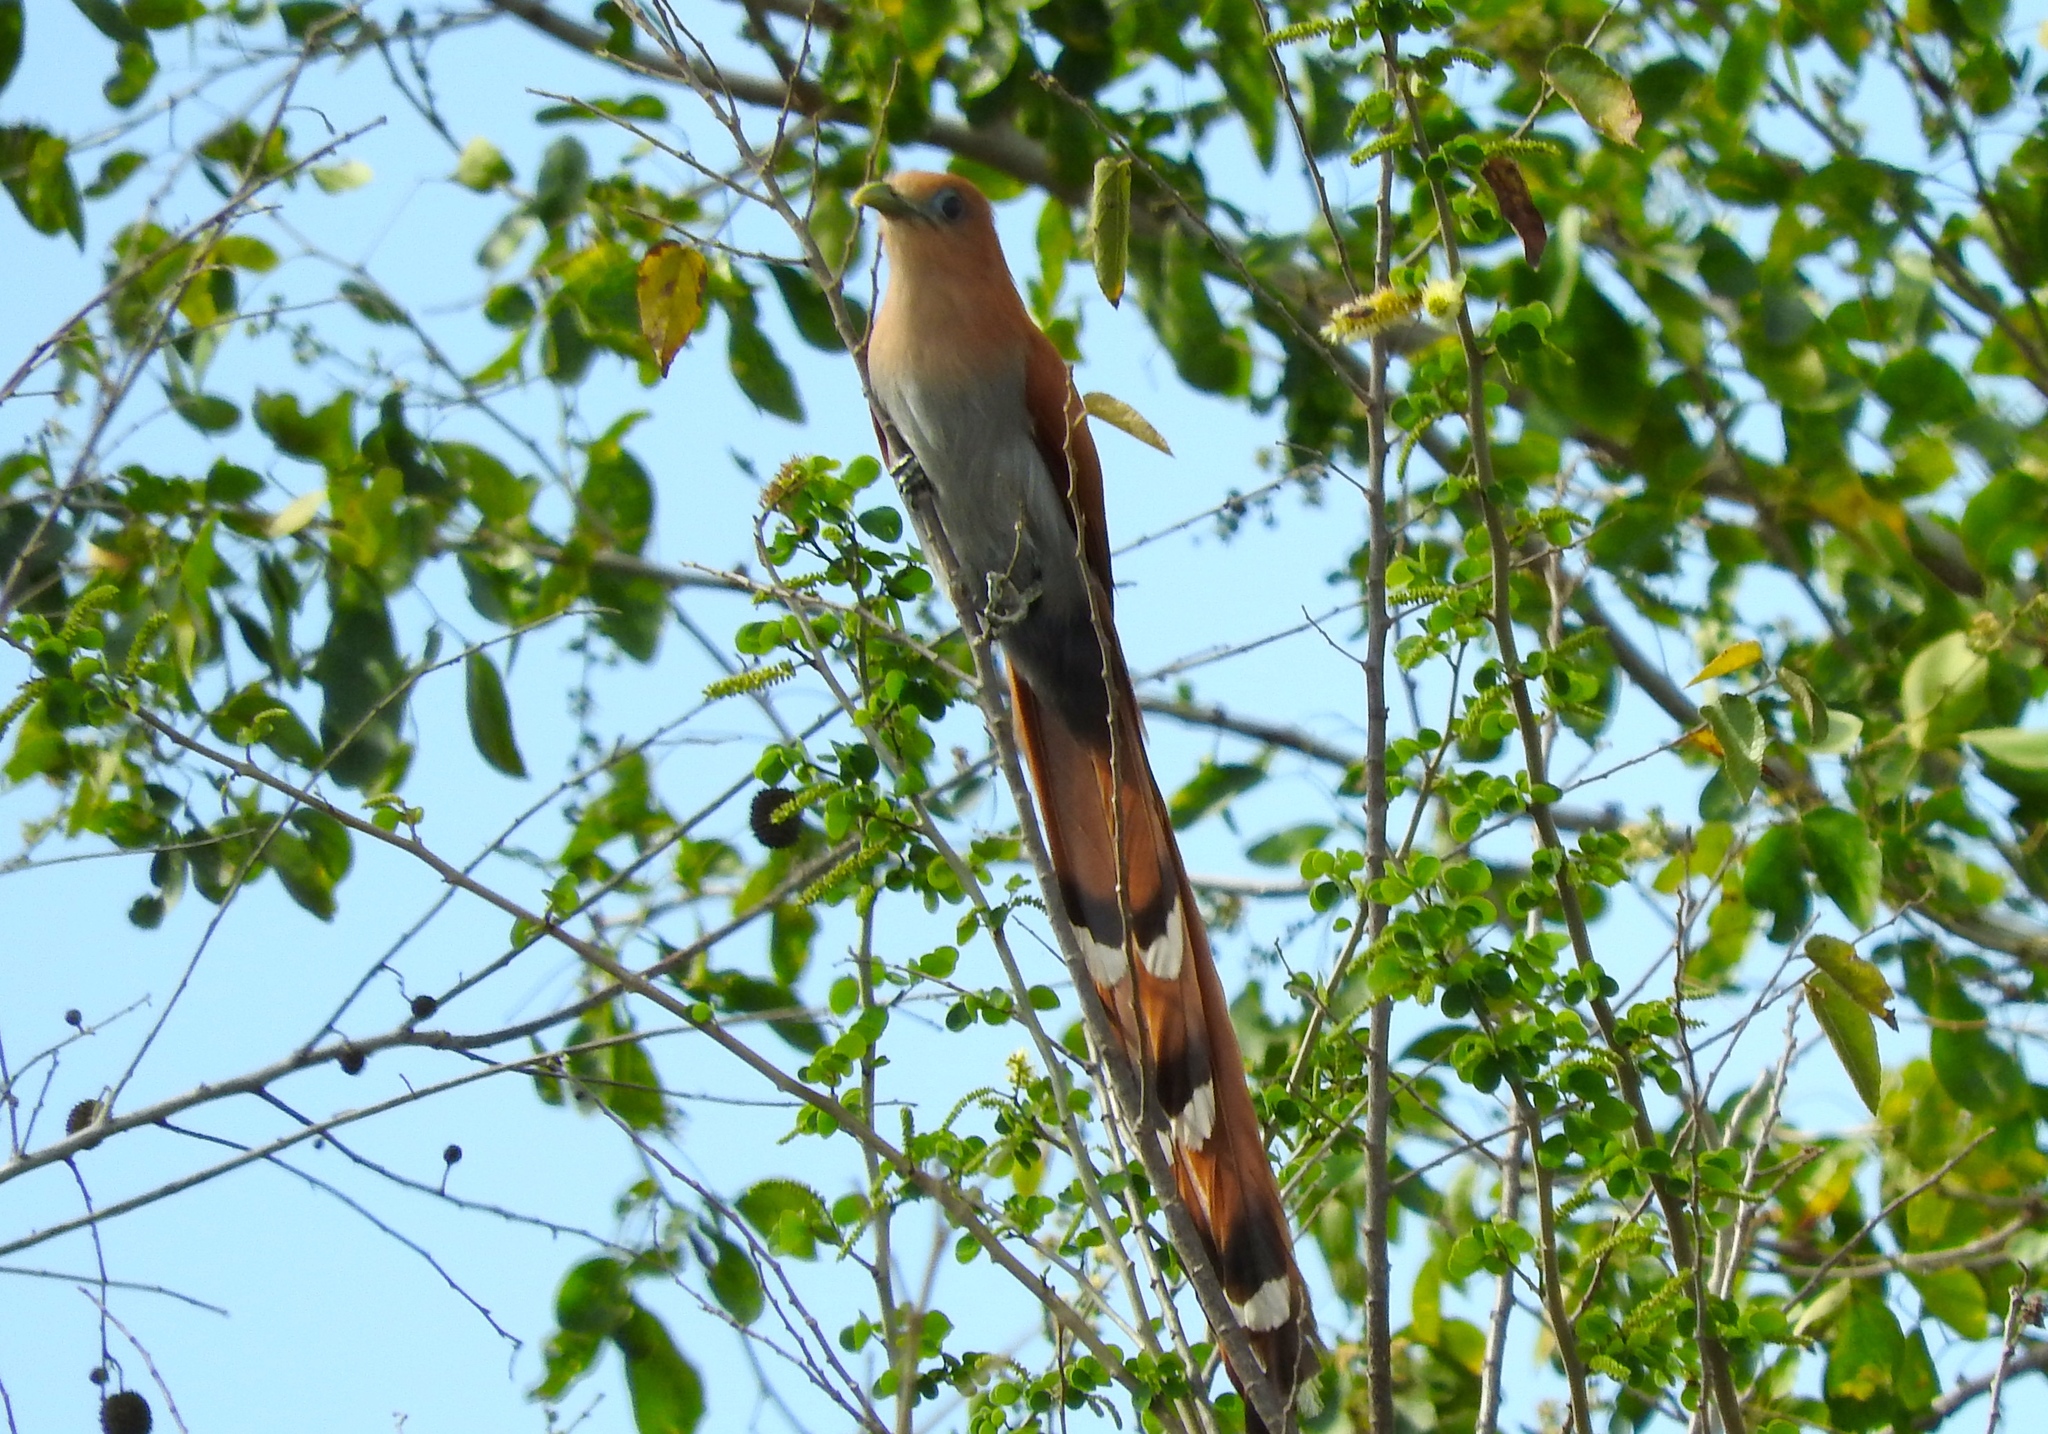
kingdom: Animalia
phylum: Chordata
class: Aves
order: Cuculiformes
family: Cuculidae
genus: Piaya
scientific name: Piaya cayana
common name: Squirrel cuckoo
